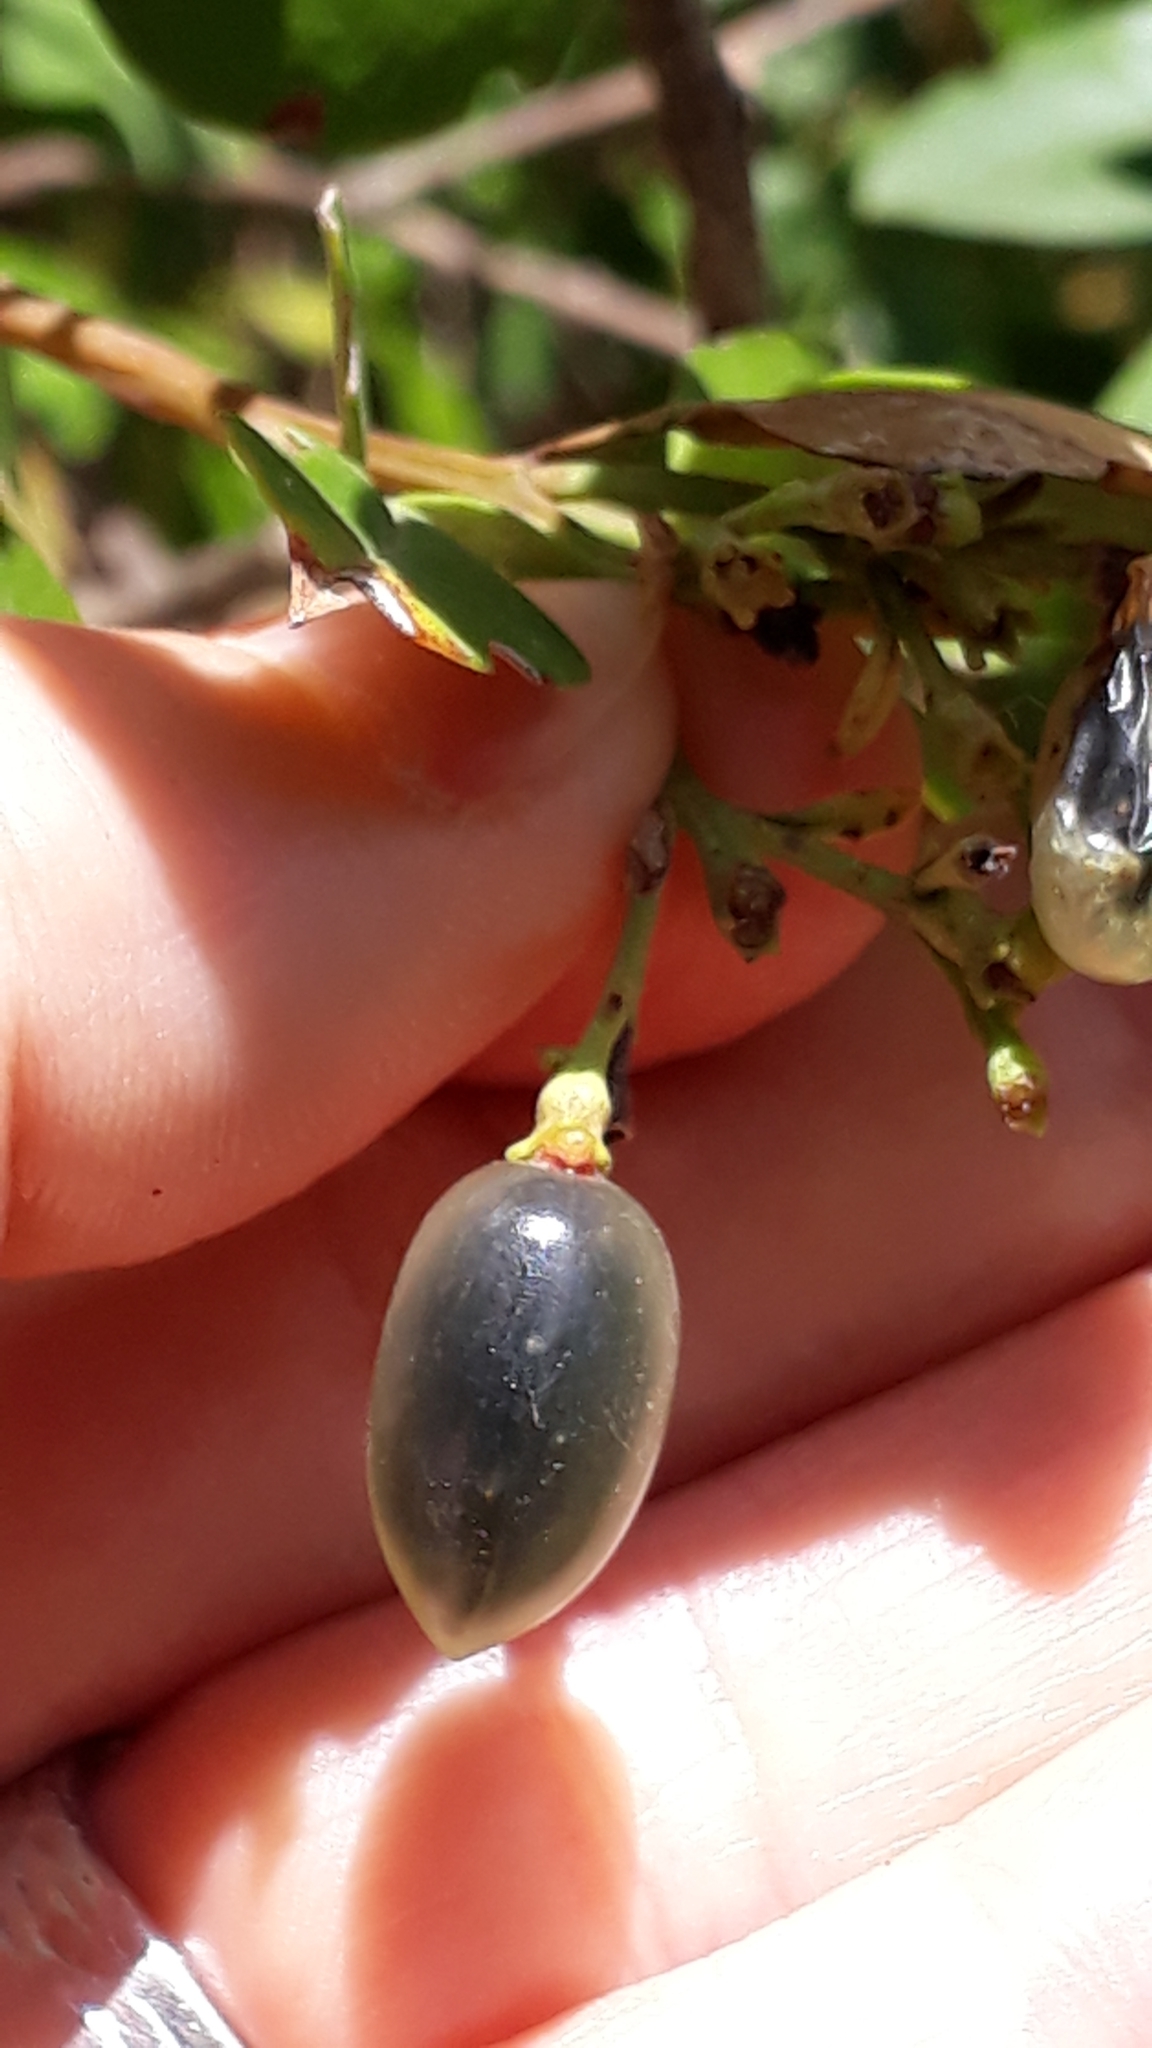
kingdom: Plantae
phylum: Tracheophyta
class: Magnoliopsida
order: Lamiales
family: Oleaceae
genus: Chrysojasminum
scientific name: Chrysojasminum odoratissimum
